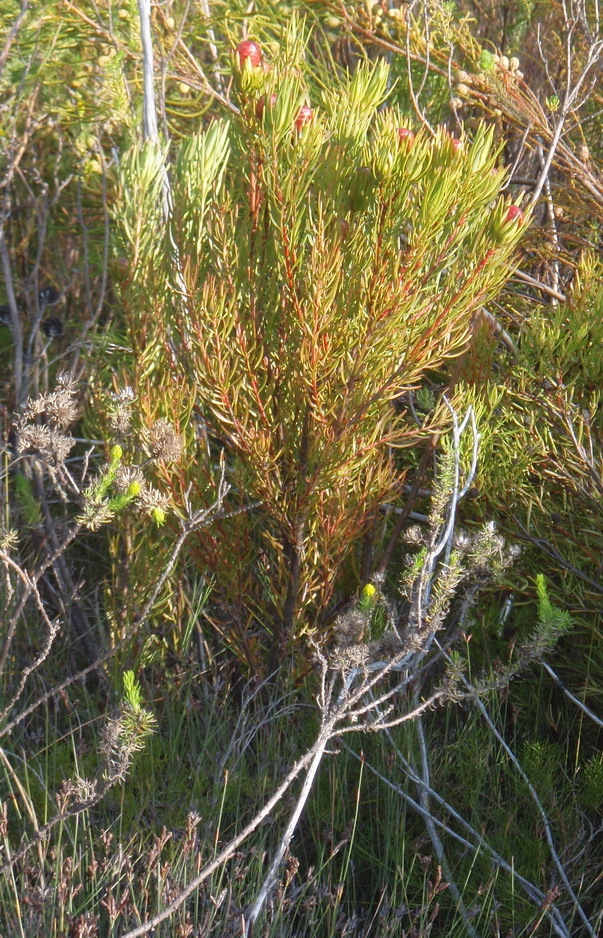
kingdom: Plantae
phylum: Tracheophyta
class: Magnoliopsida
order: Proteales
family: Proteaceae
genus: Leucadendron
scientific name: Leucadendron spissifolium
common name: Spear-leaf conebush
